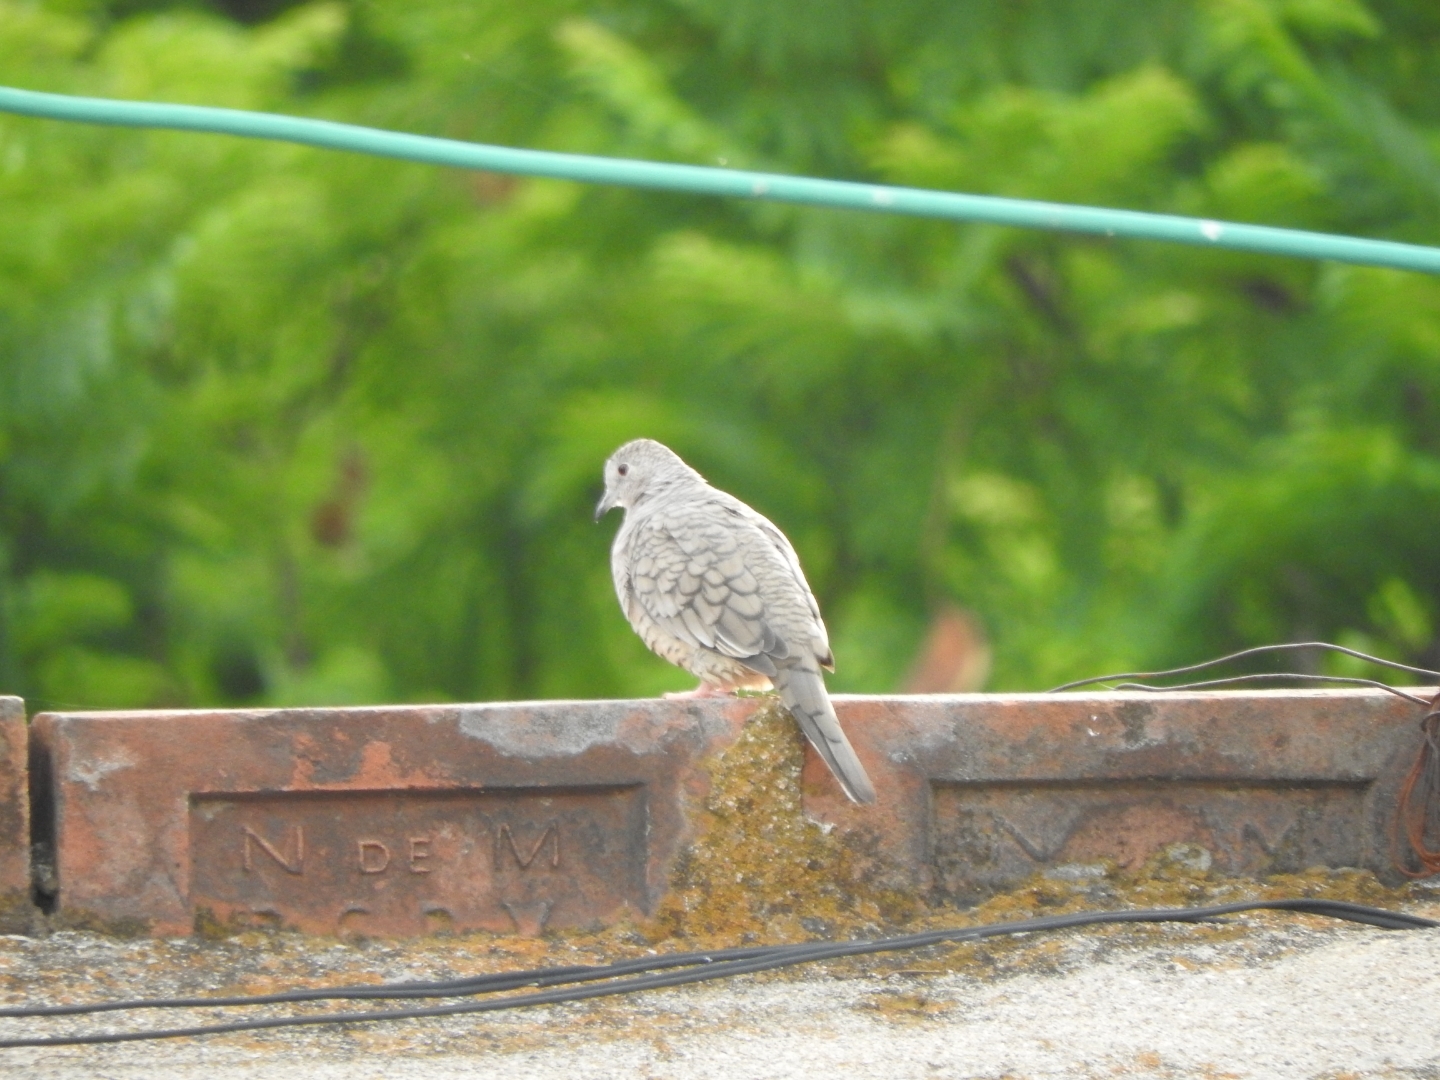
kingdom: Animalia
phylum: Chordata
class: Aves
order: Columbiformes
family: Columbidae
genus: Columbina
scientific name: Columbina inca
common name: Inca dove
